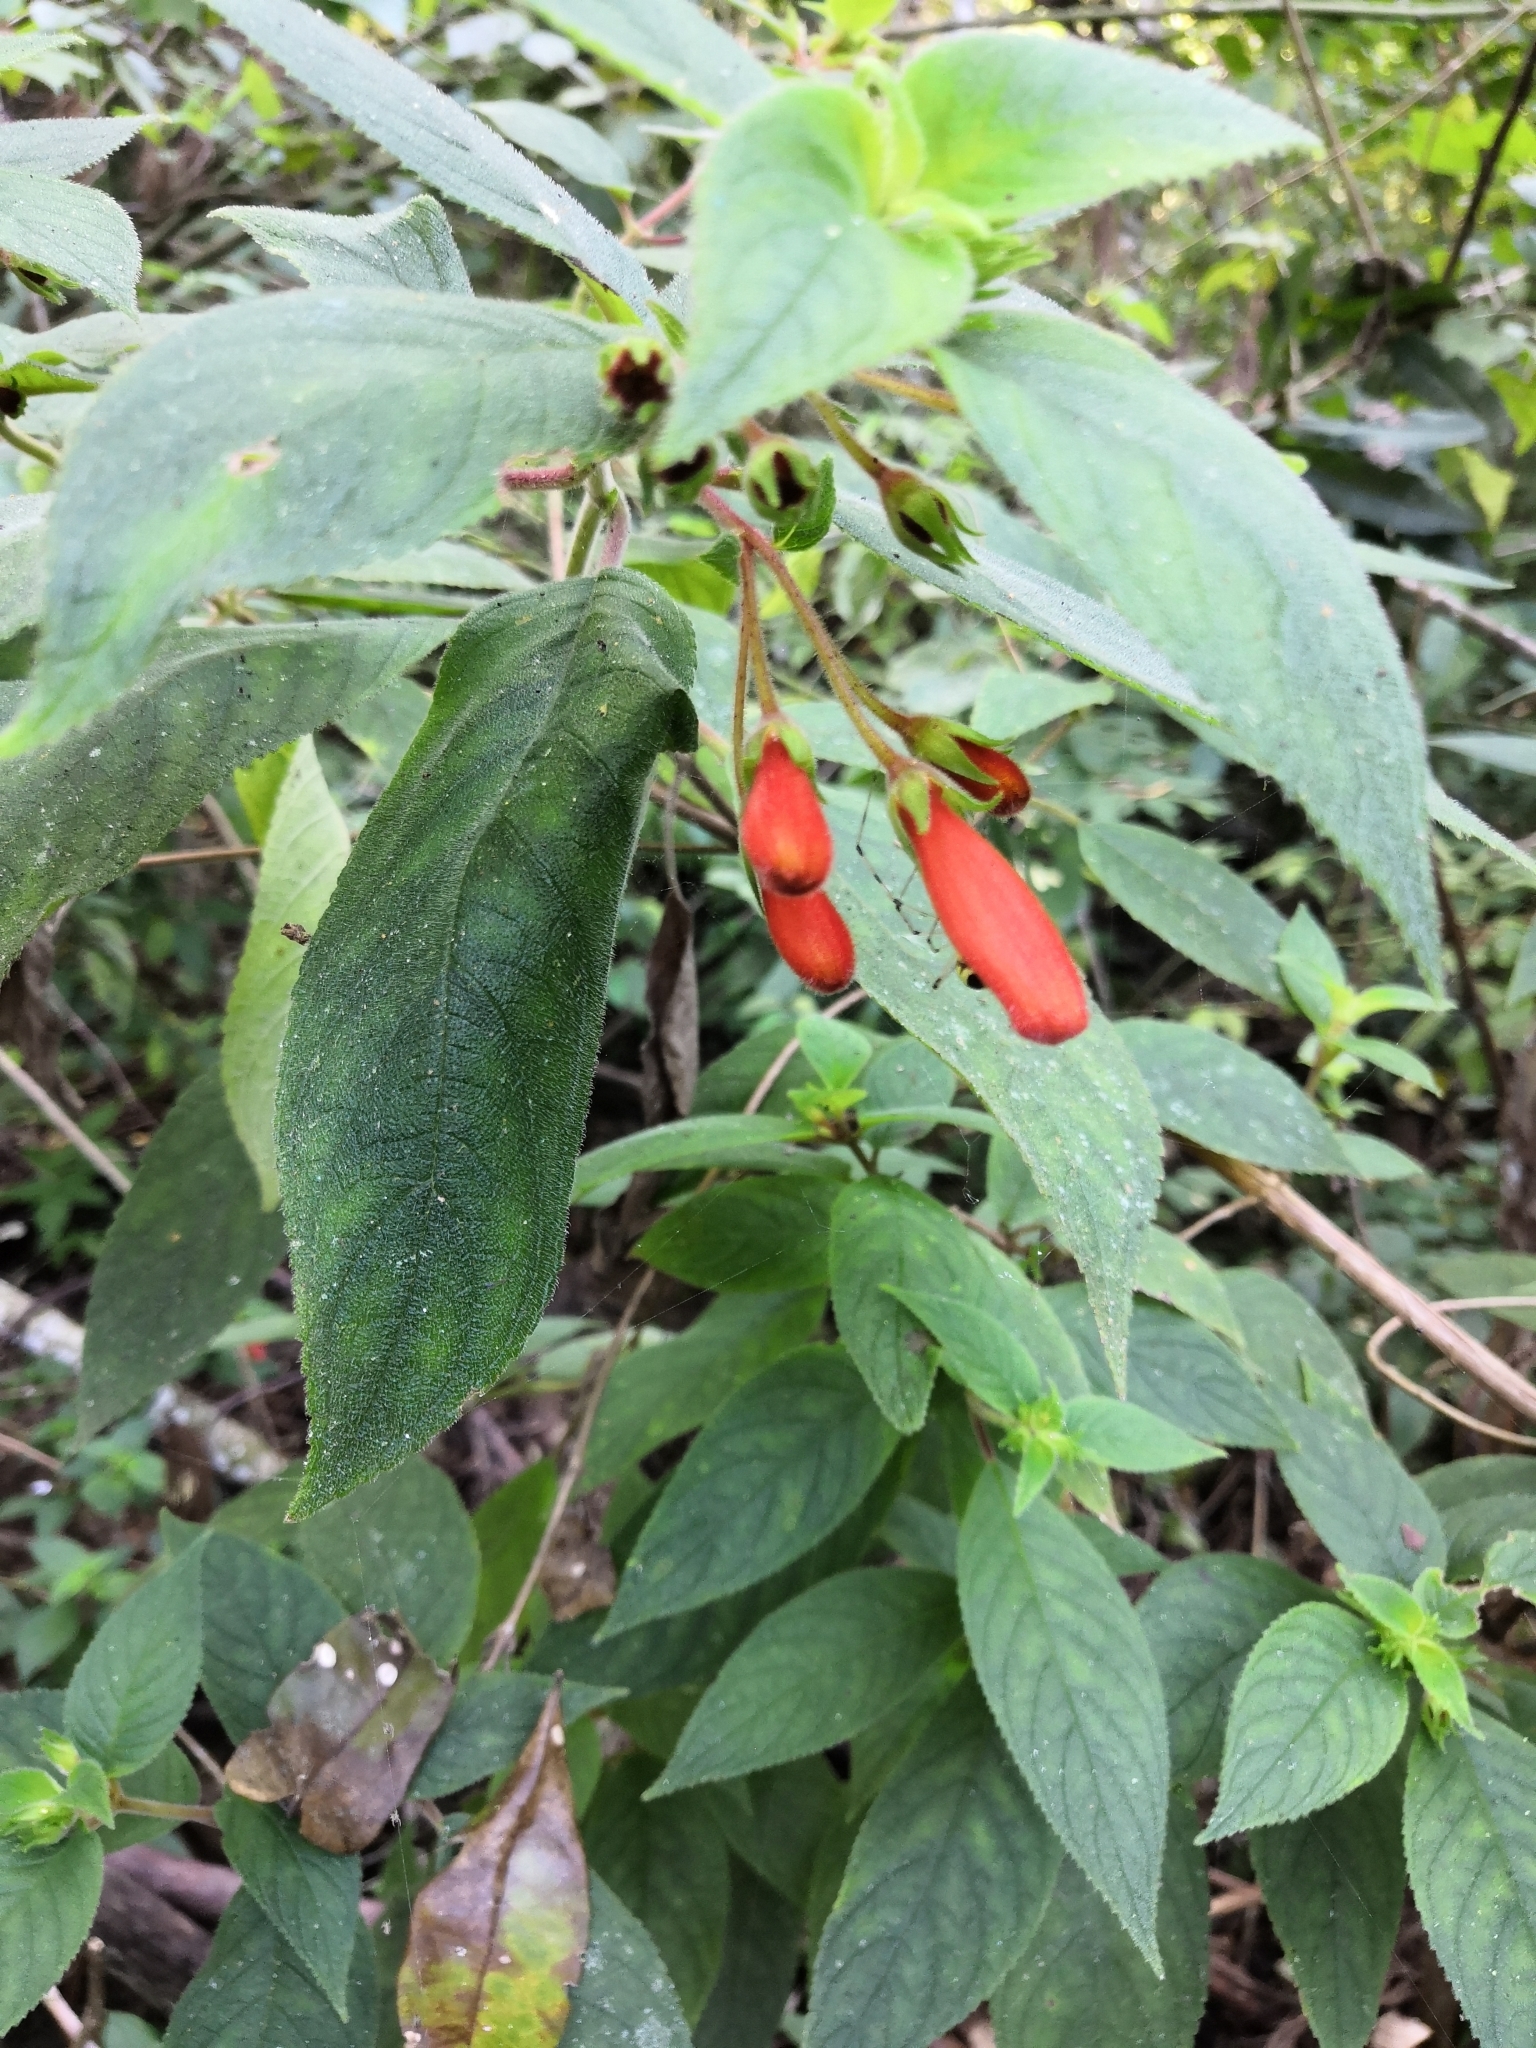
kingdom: Plantae
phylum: Tracheophyta
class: Magnoliopsida
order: Lamiales
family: Gesneriaceae
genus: Moussonia
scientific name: Moussonia jaliscana
